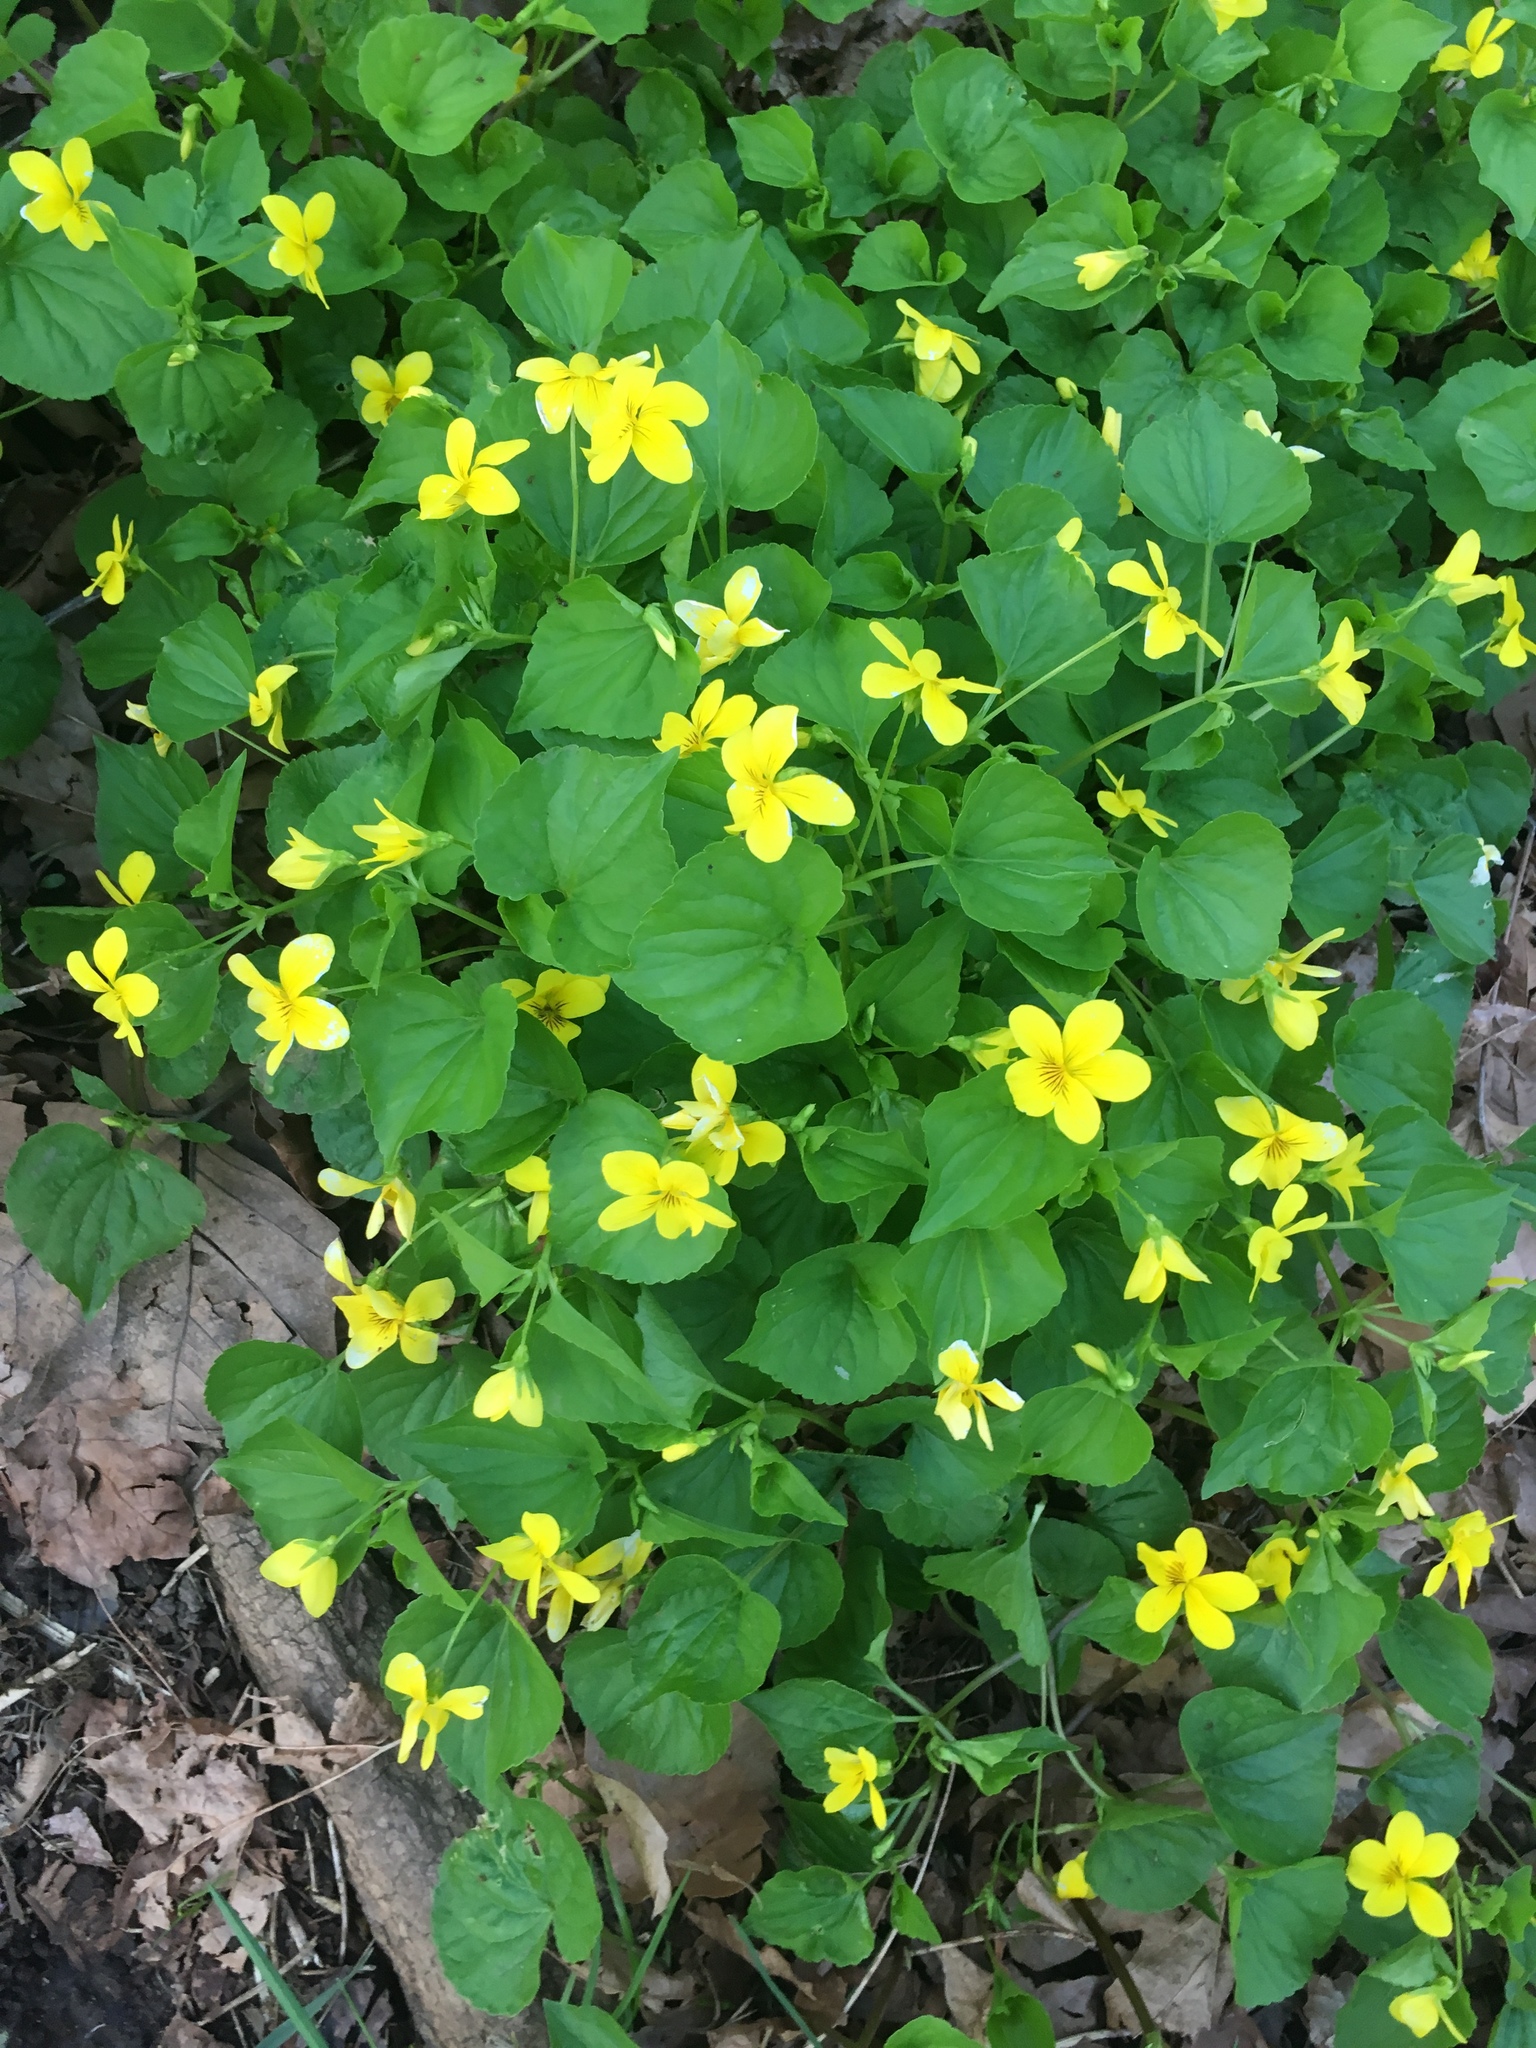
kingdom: Plantae
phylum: Tracheophyta
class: Magnoliopsida
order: Malpighiales
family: Violaceae
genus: Viola
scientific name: Viola glabella
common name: Stream violet
